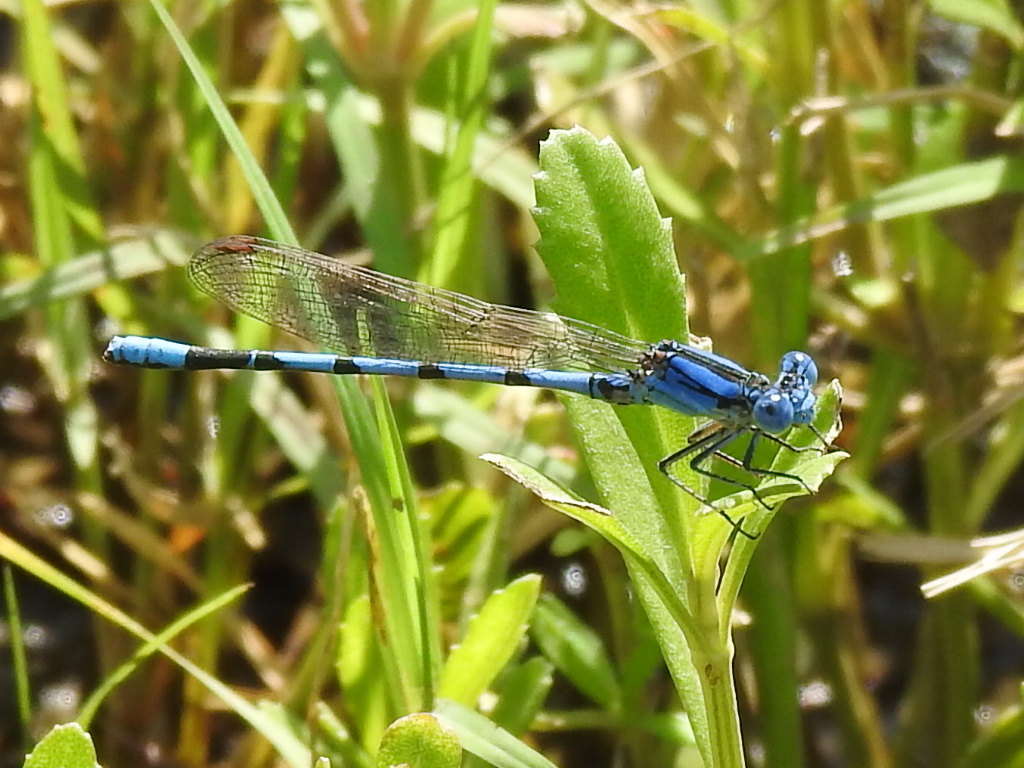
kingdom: Animalia
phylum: Arthropoda
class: Insecta
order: Odonata
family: Coenagrionidae
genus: Argia
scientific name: Argia nahuana
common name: Aztec dancer
